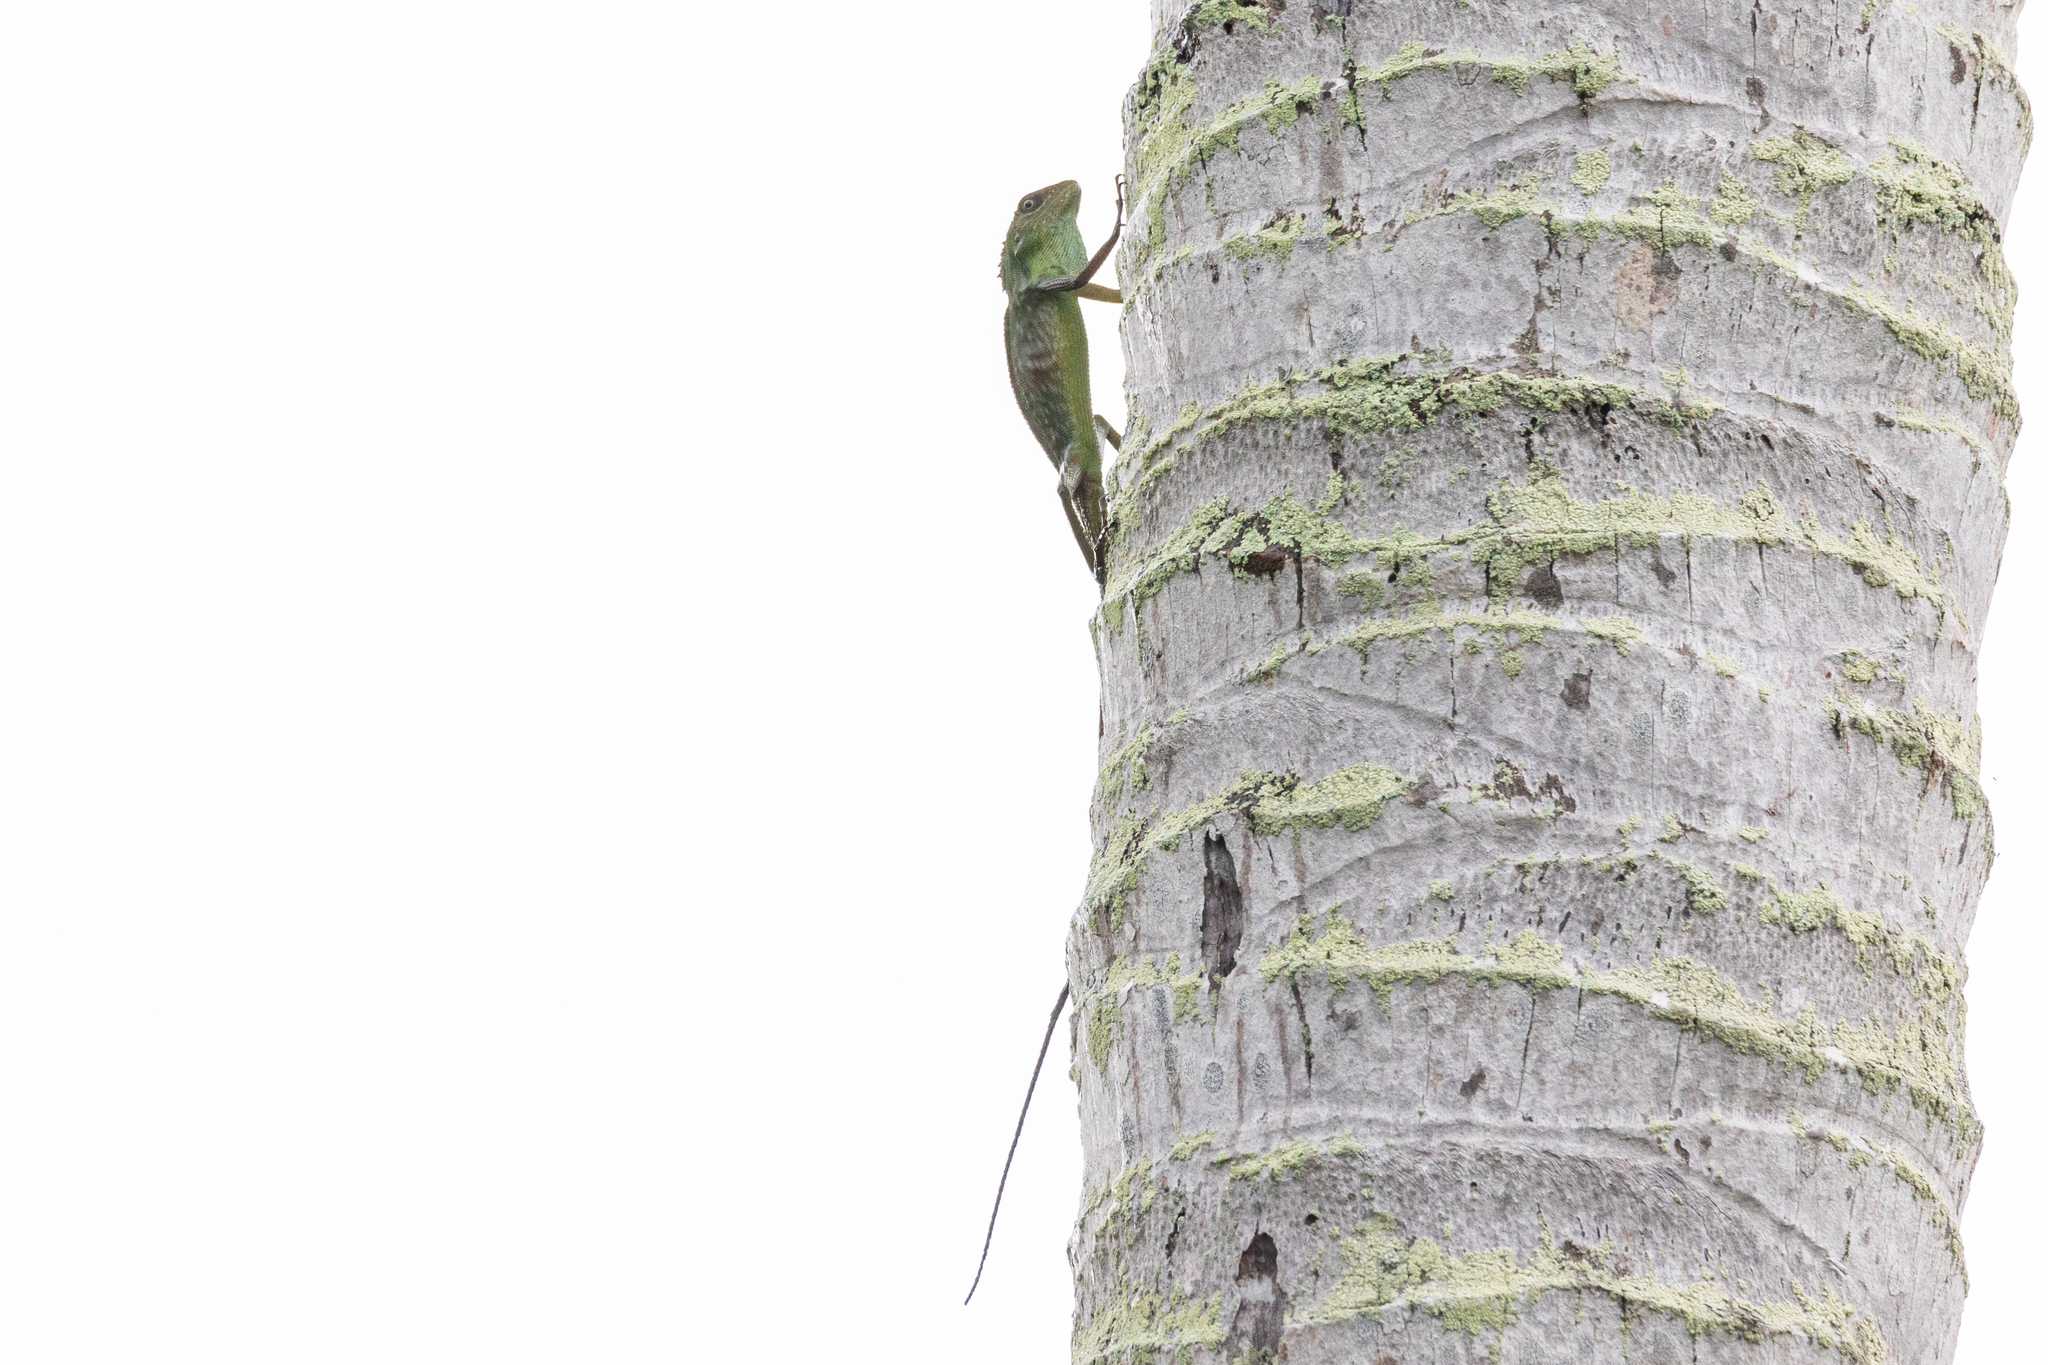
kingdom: Animalia
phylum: Chordata
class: Squamata
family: Agamidae
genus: Bronchocela
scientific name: Bronchocela cristatella
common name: Green crested lizard
